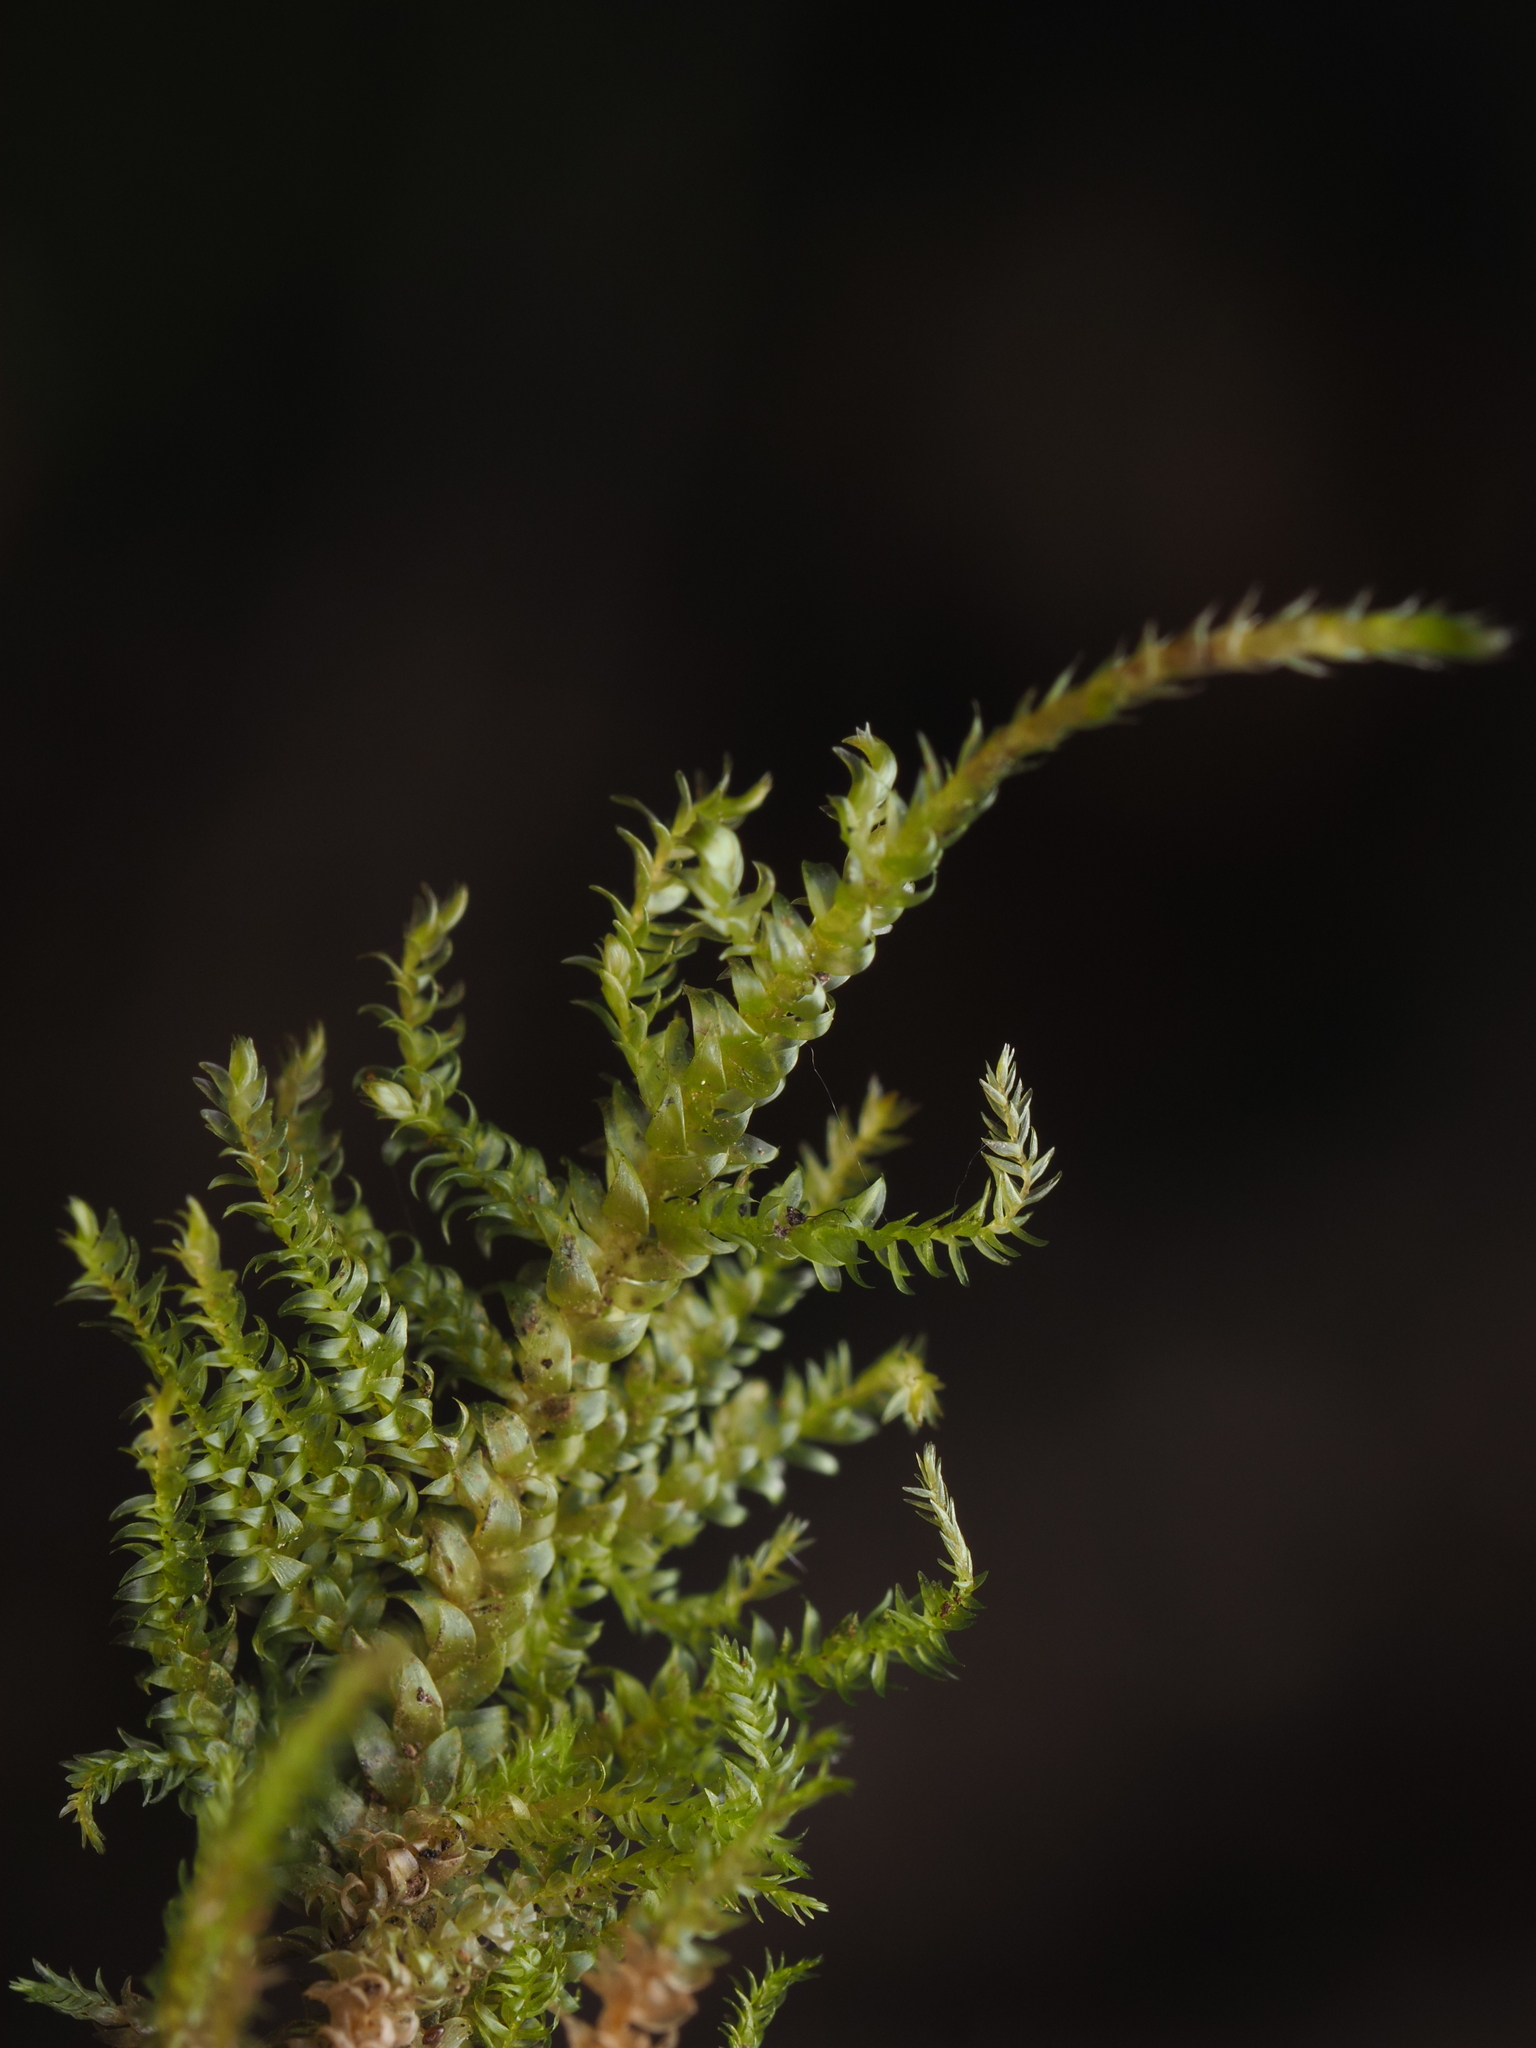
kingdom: Plantae
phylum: Bryophyta
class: Bryopsida
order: Hypnales
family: Hypnaceae
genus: Hypnum
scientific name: Hypnum cupressiforme
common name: Cypress-leaved plait-moss
